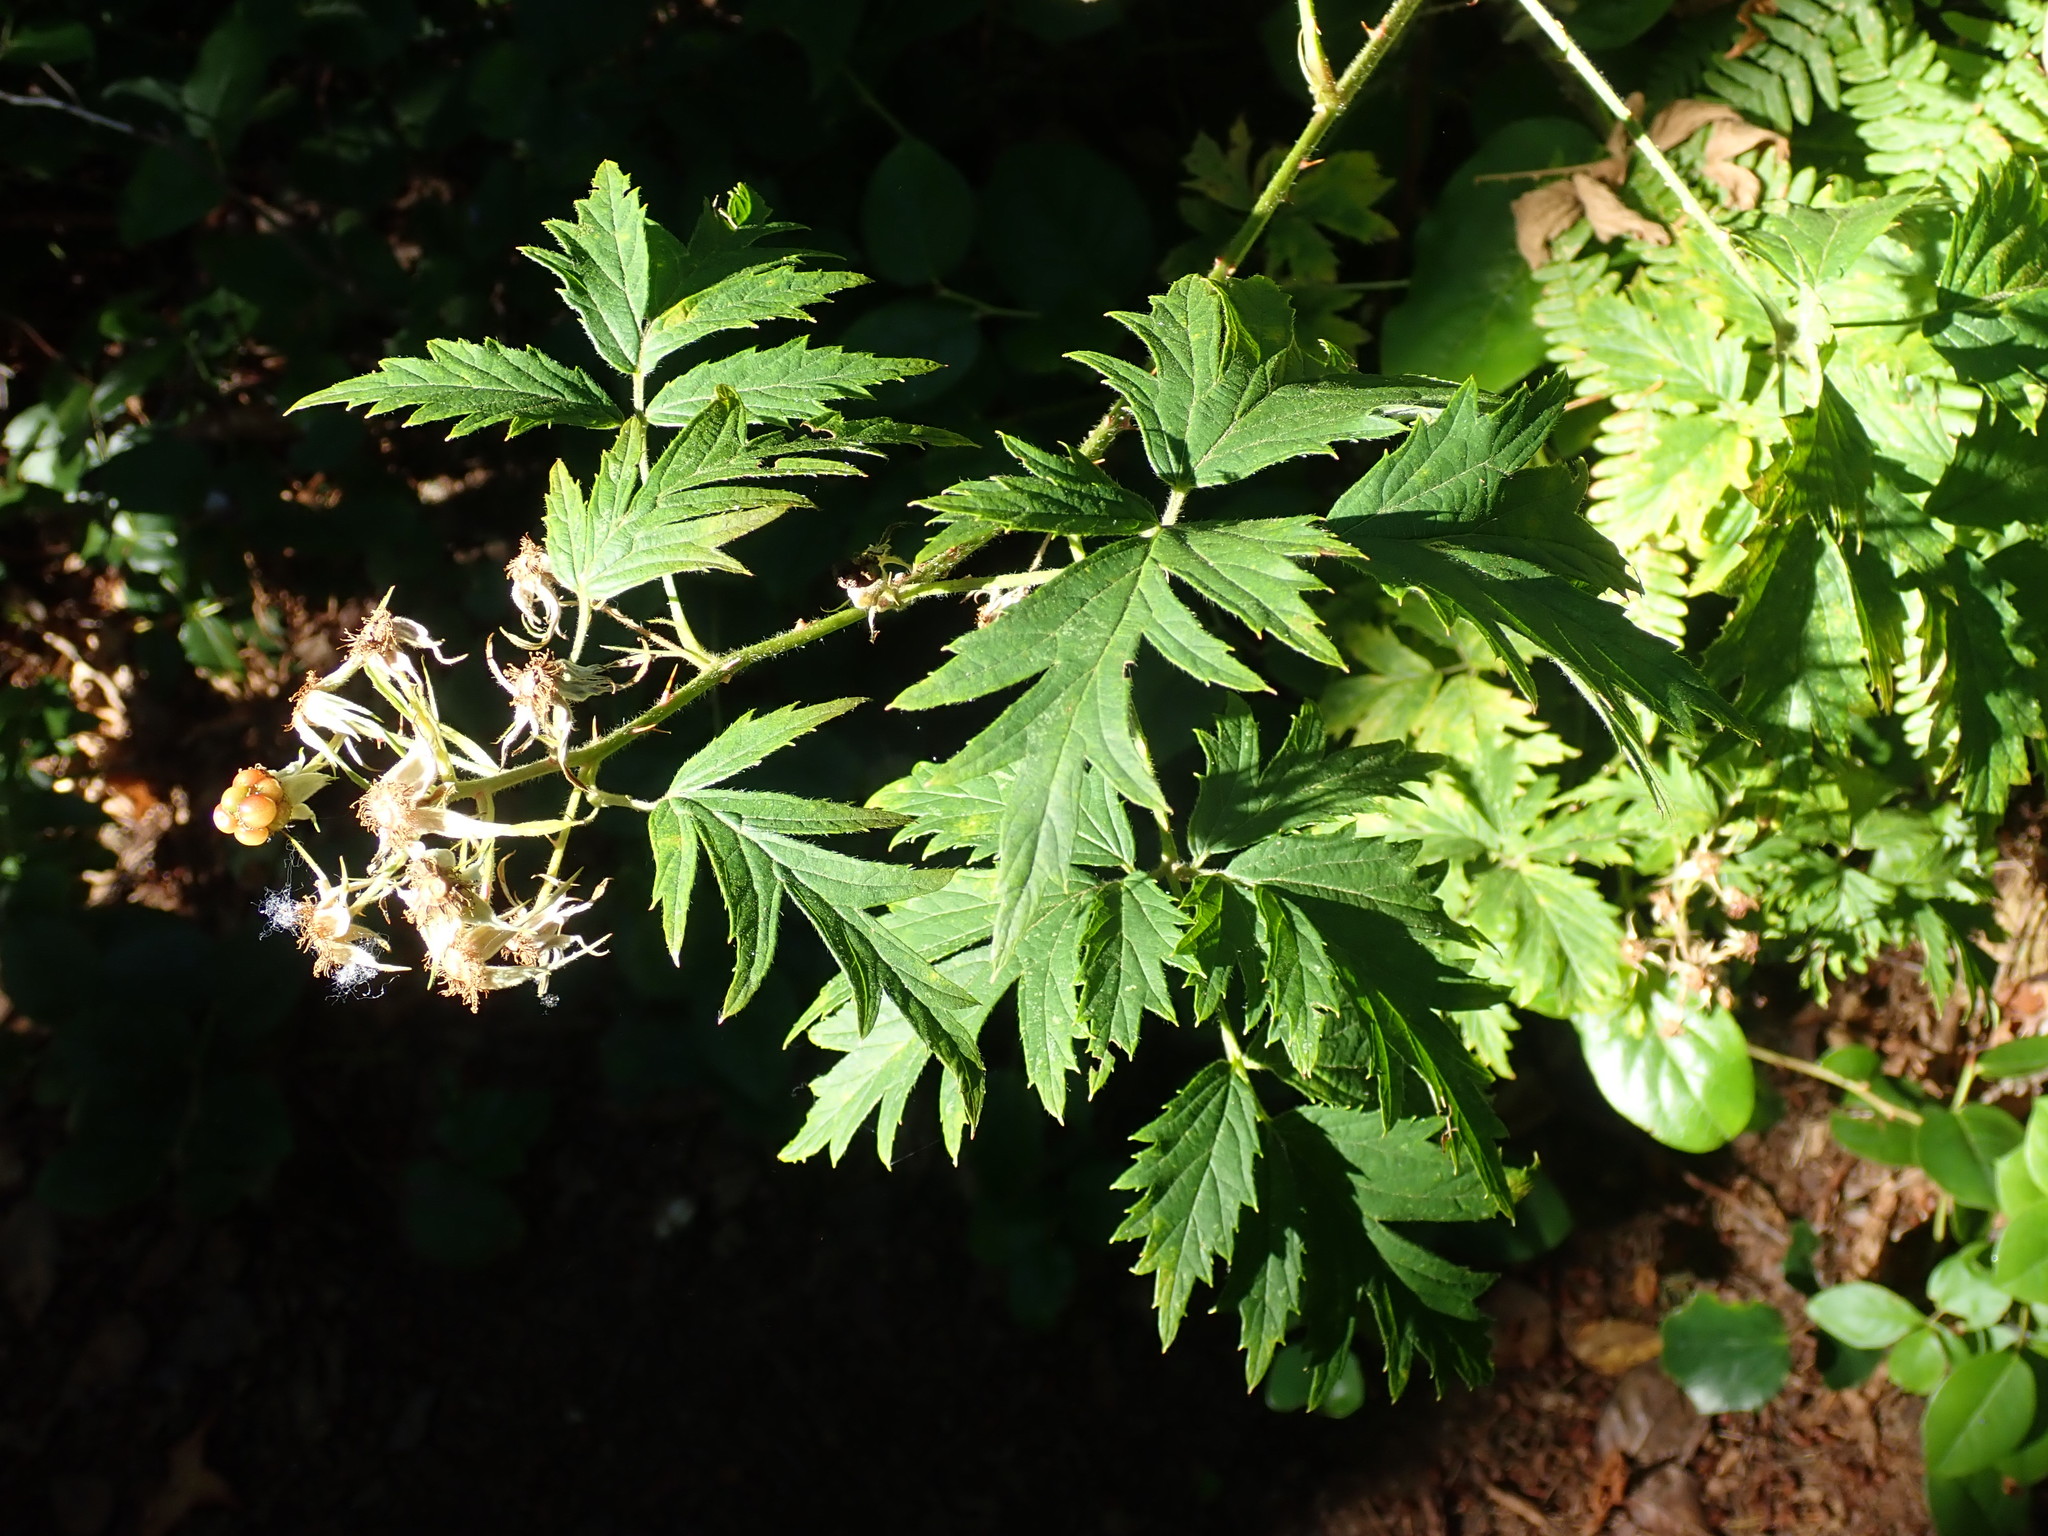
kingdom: Plantae
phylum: Tracheophyta
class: Magnoliopsida
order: Rosales
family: Rosaceae
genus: Rubus
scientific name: Rubus laciniatus
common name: Evergreen blackberry
